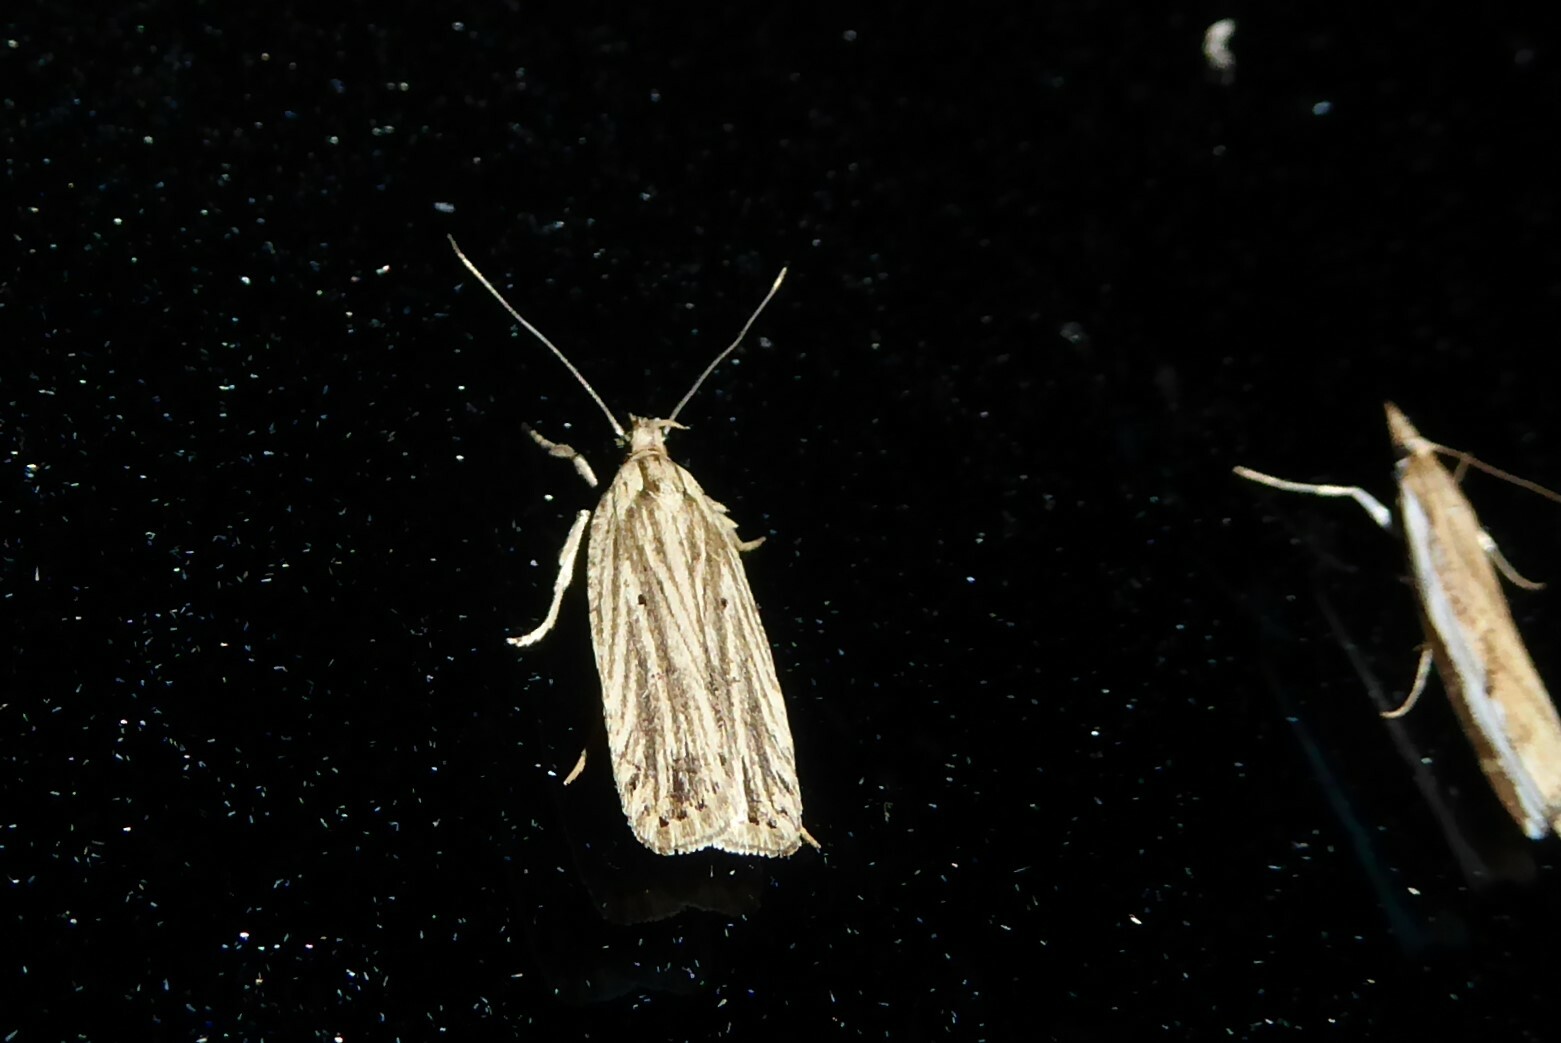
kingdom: Animalia
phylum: Arthropoda
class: Insecta
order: Lepidoptera
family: Depressariidae
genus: Agonopterix
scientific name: Agonopterix
